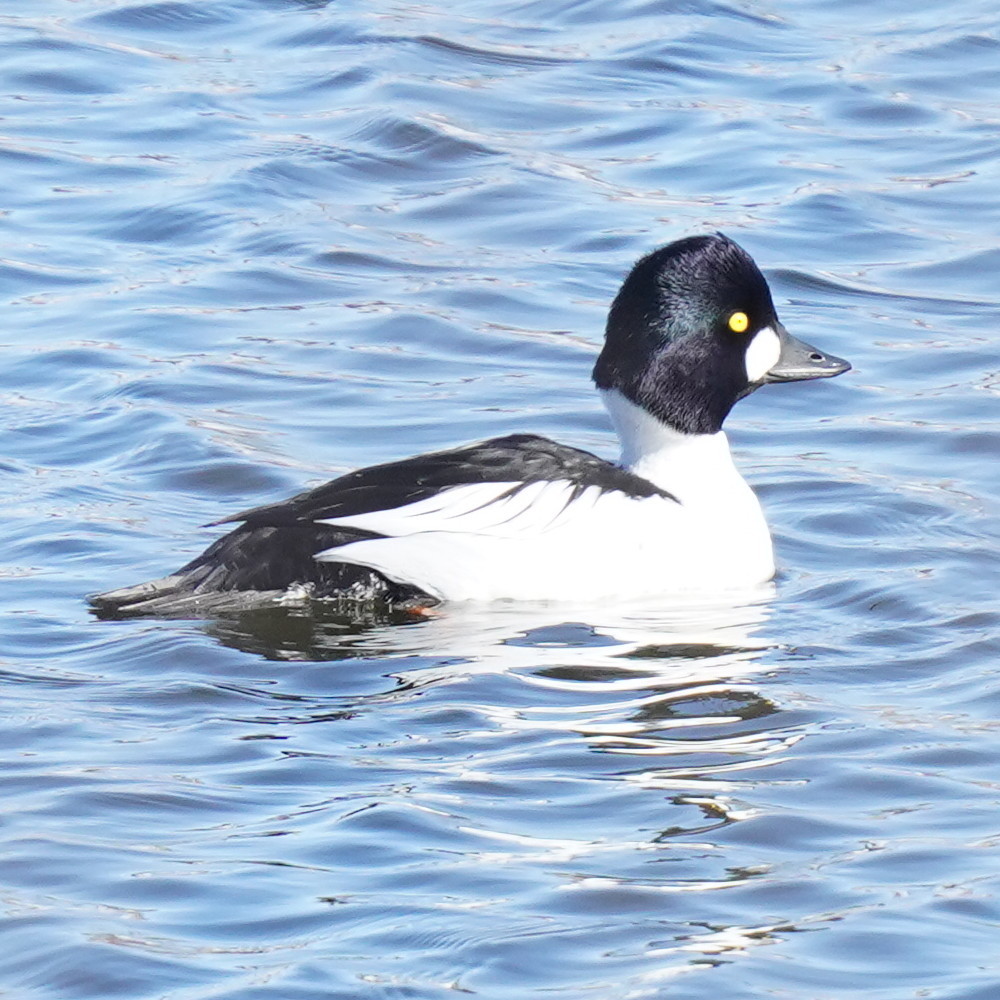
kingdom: Animalia
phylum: Chordata
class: Aves
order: Anseriformes
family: Anatidae
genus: Bucephala
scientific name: Bucephala clangula
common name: Common goldeneye
